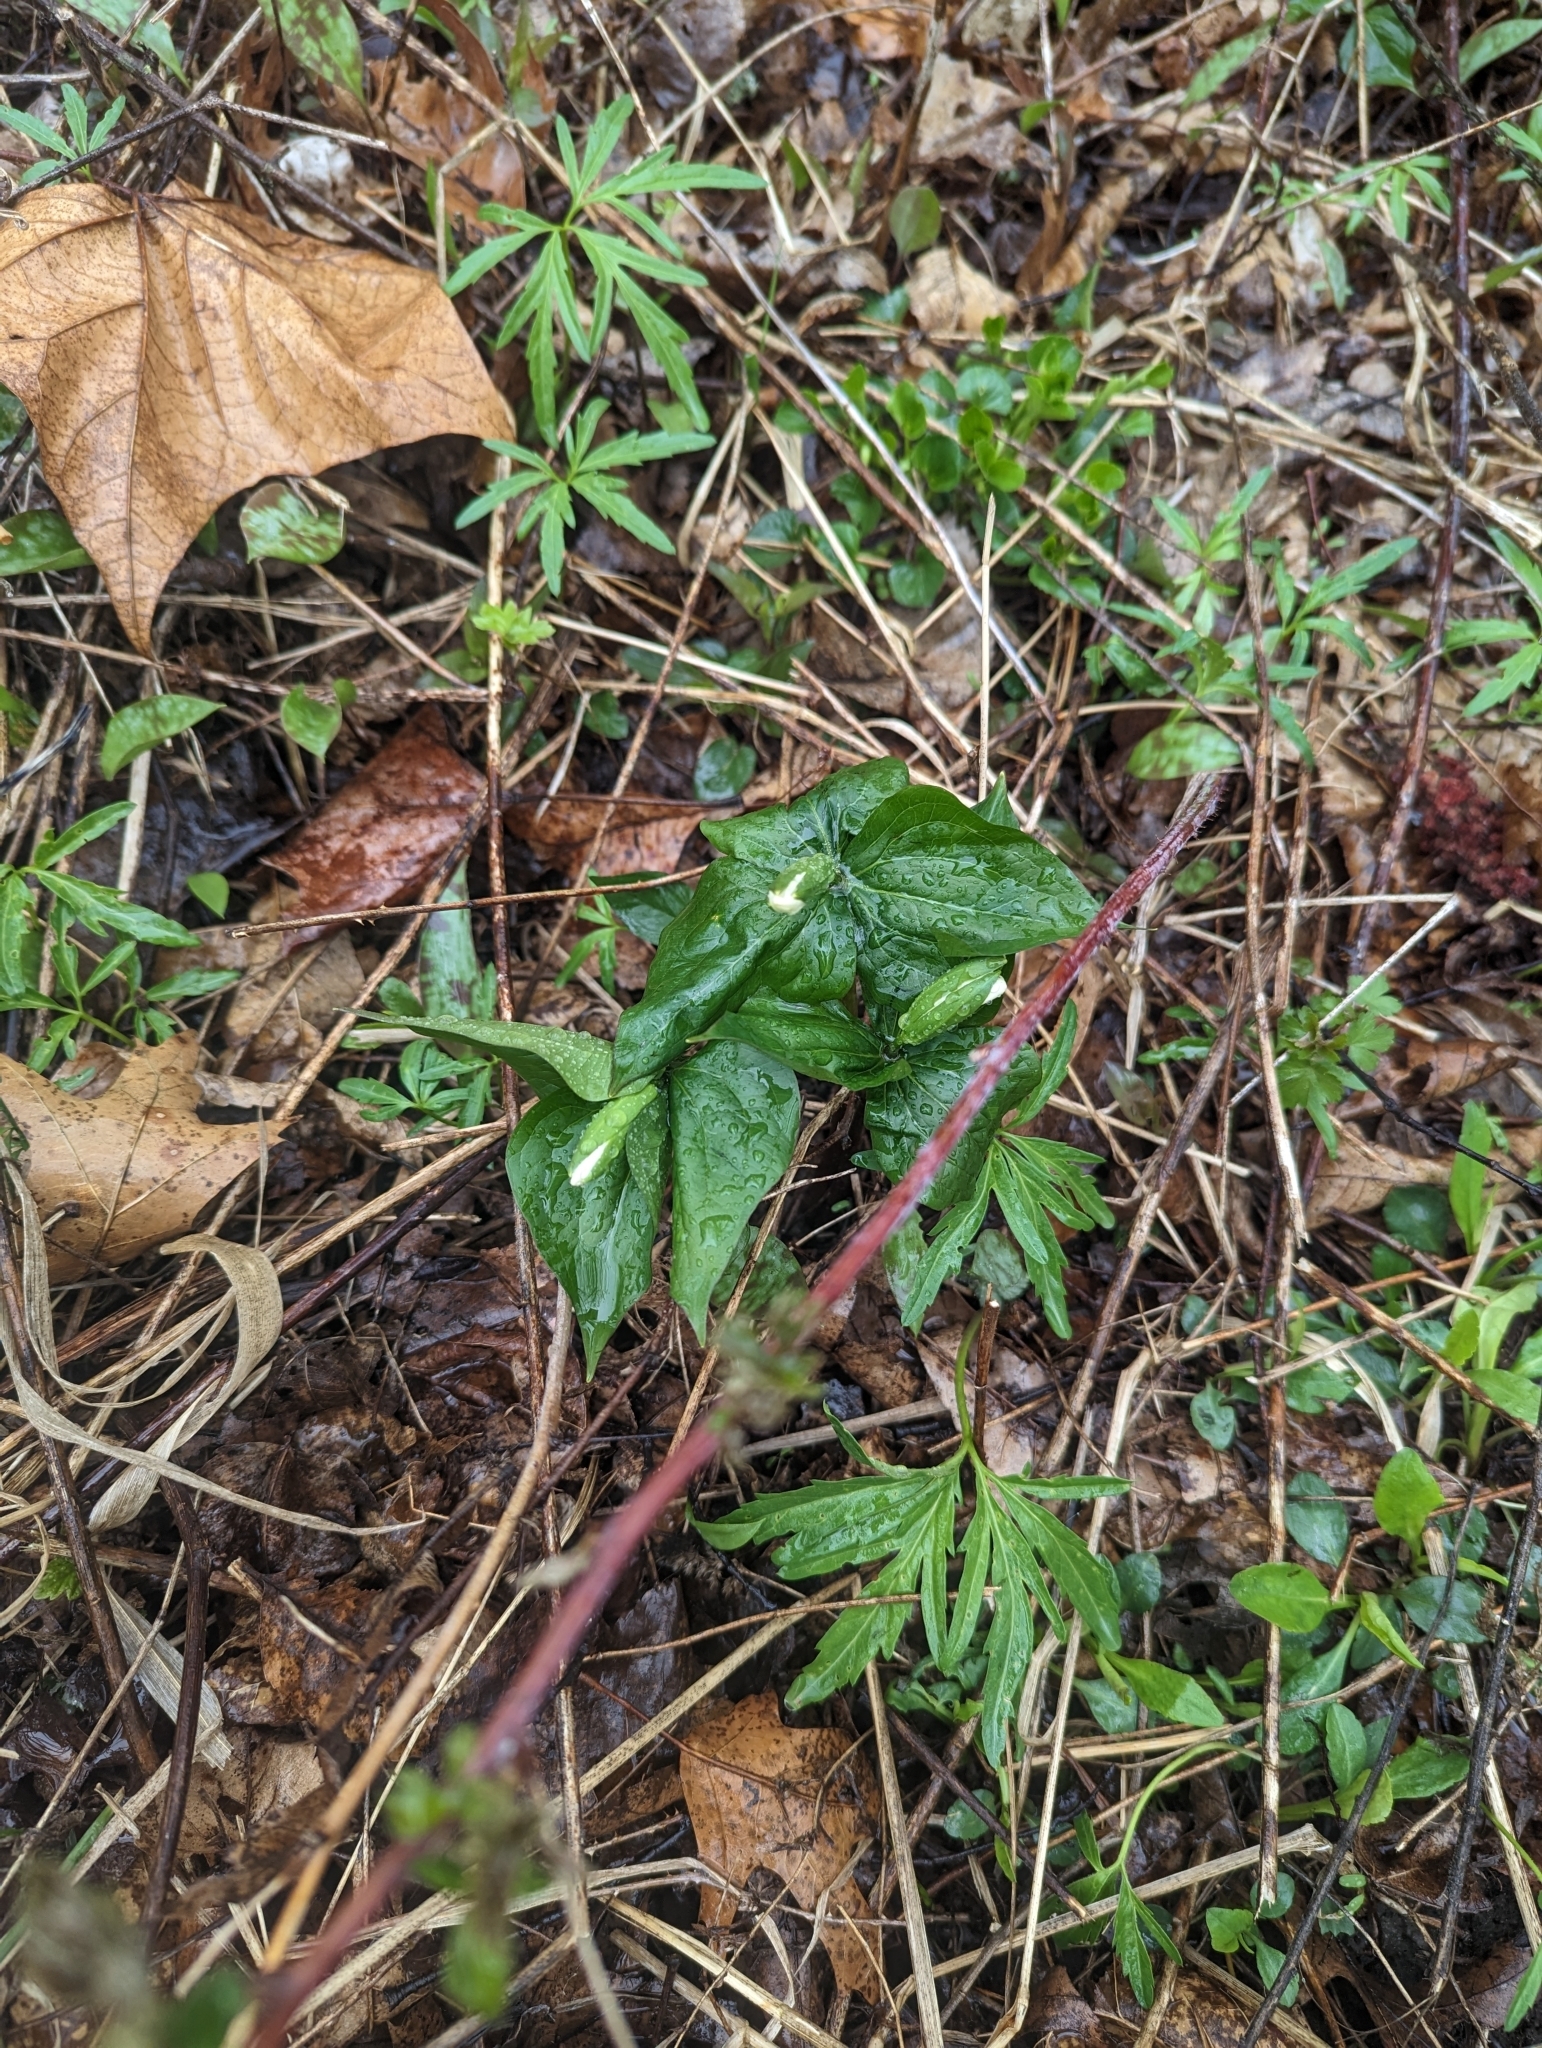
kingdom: Plantae
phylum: Tracheophyta
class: Liliopsida
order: Liliales
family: Melanthiaceae
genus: Trillium
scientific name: Trillium grandiflorum
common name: Great white trillium
